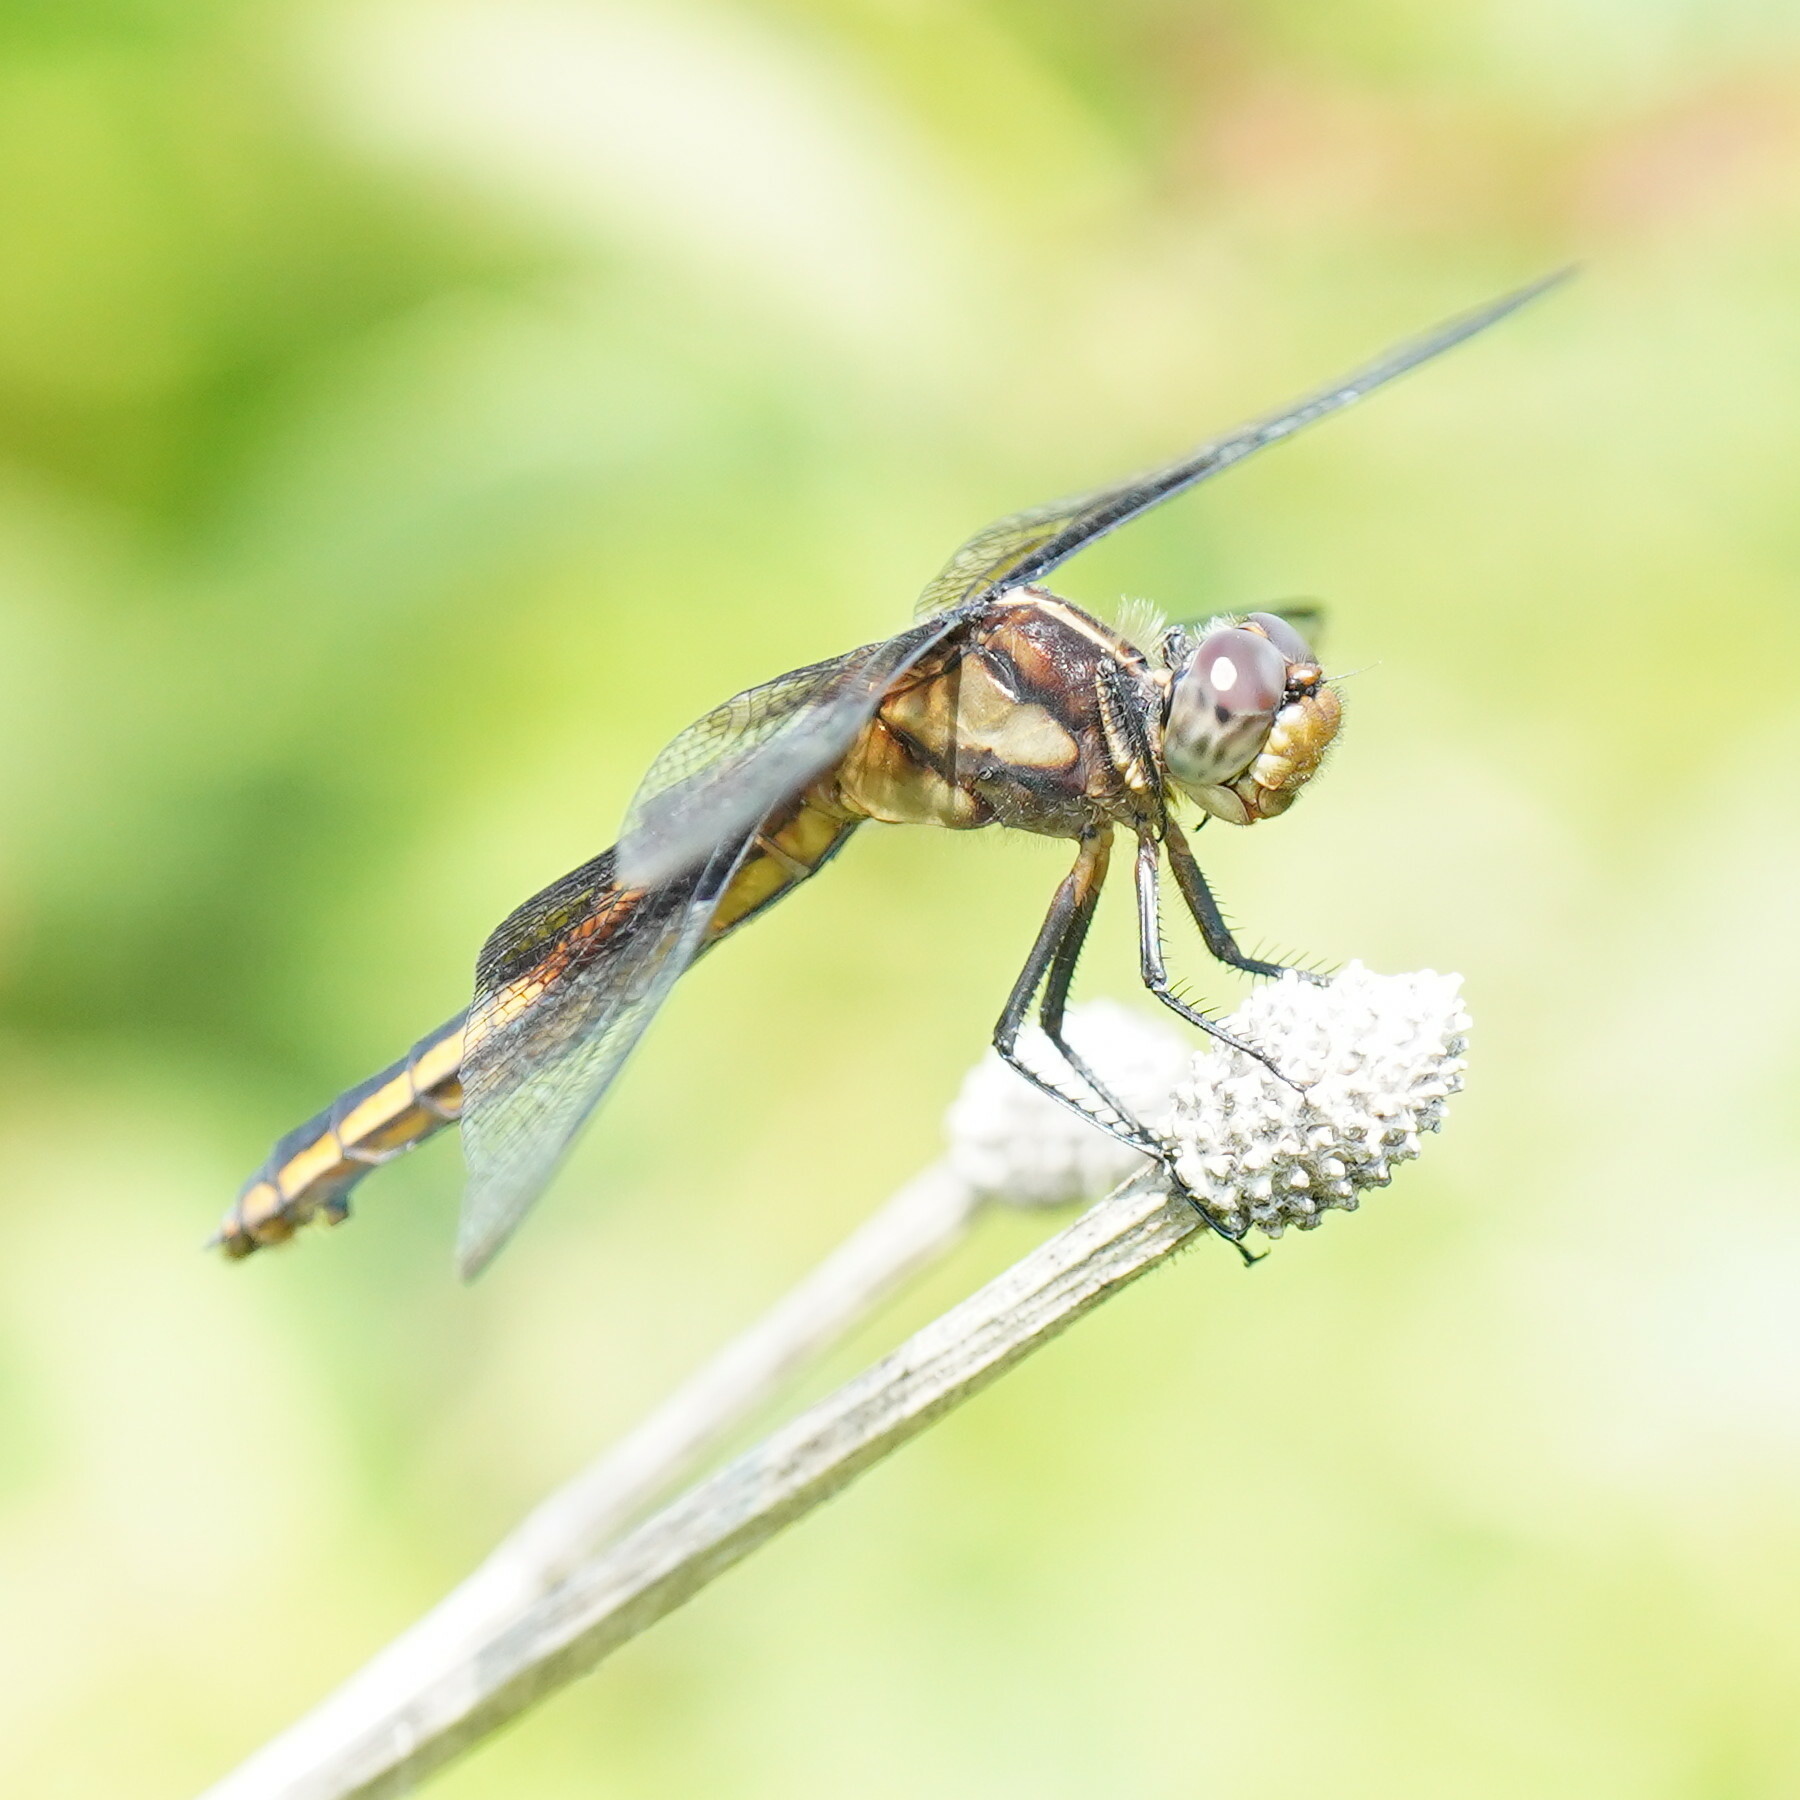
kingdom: Animalia
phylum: Arthropoda
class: Insecta
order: Odonata
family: Libellulidae
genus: Libellula
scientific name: Libellula luctuosa
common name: Widow skimmer
